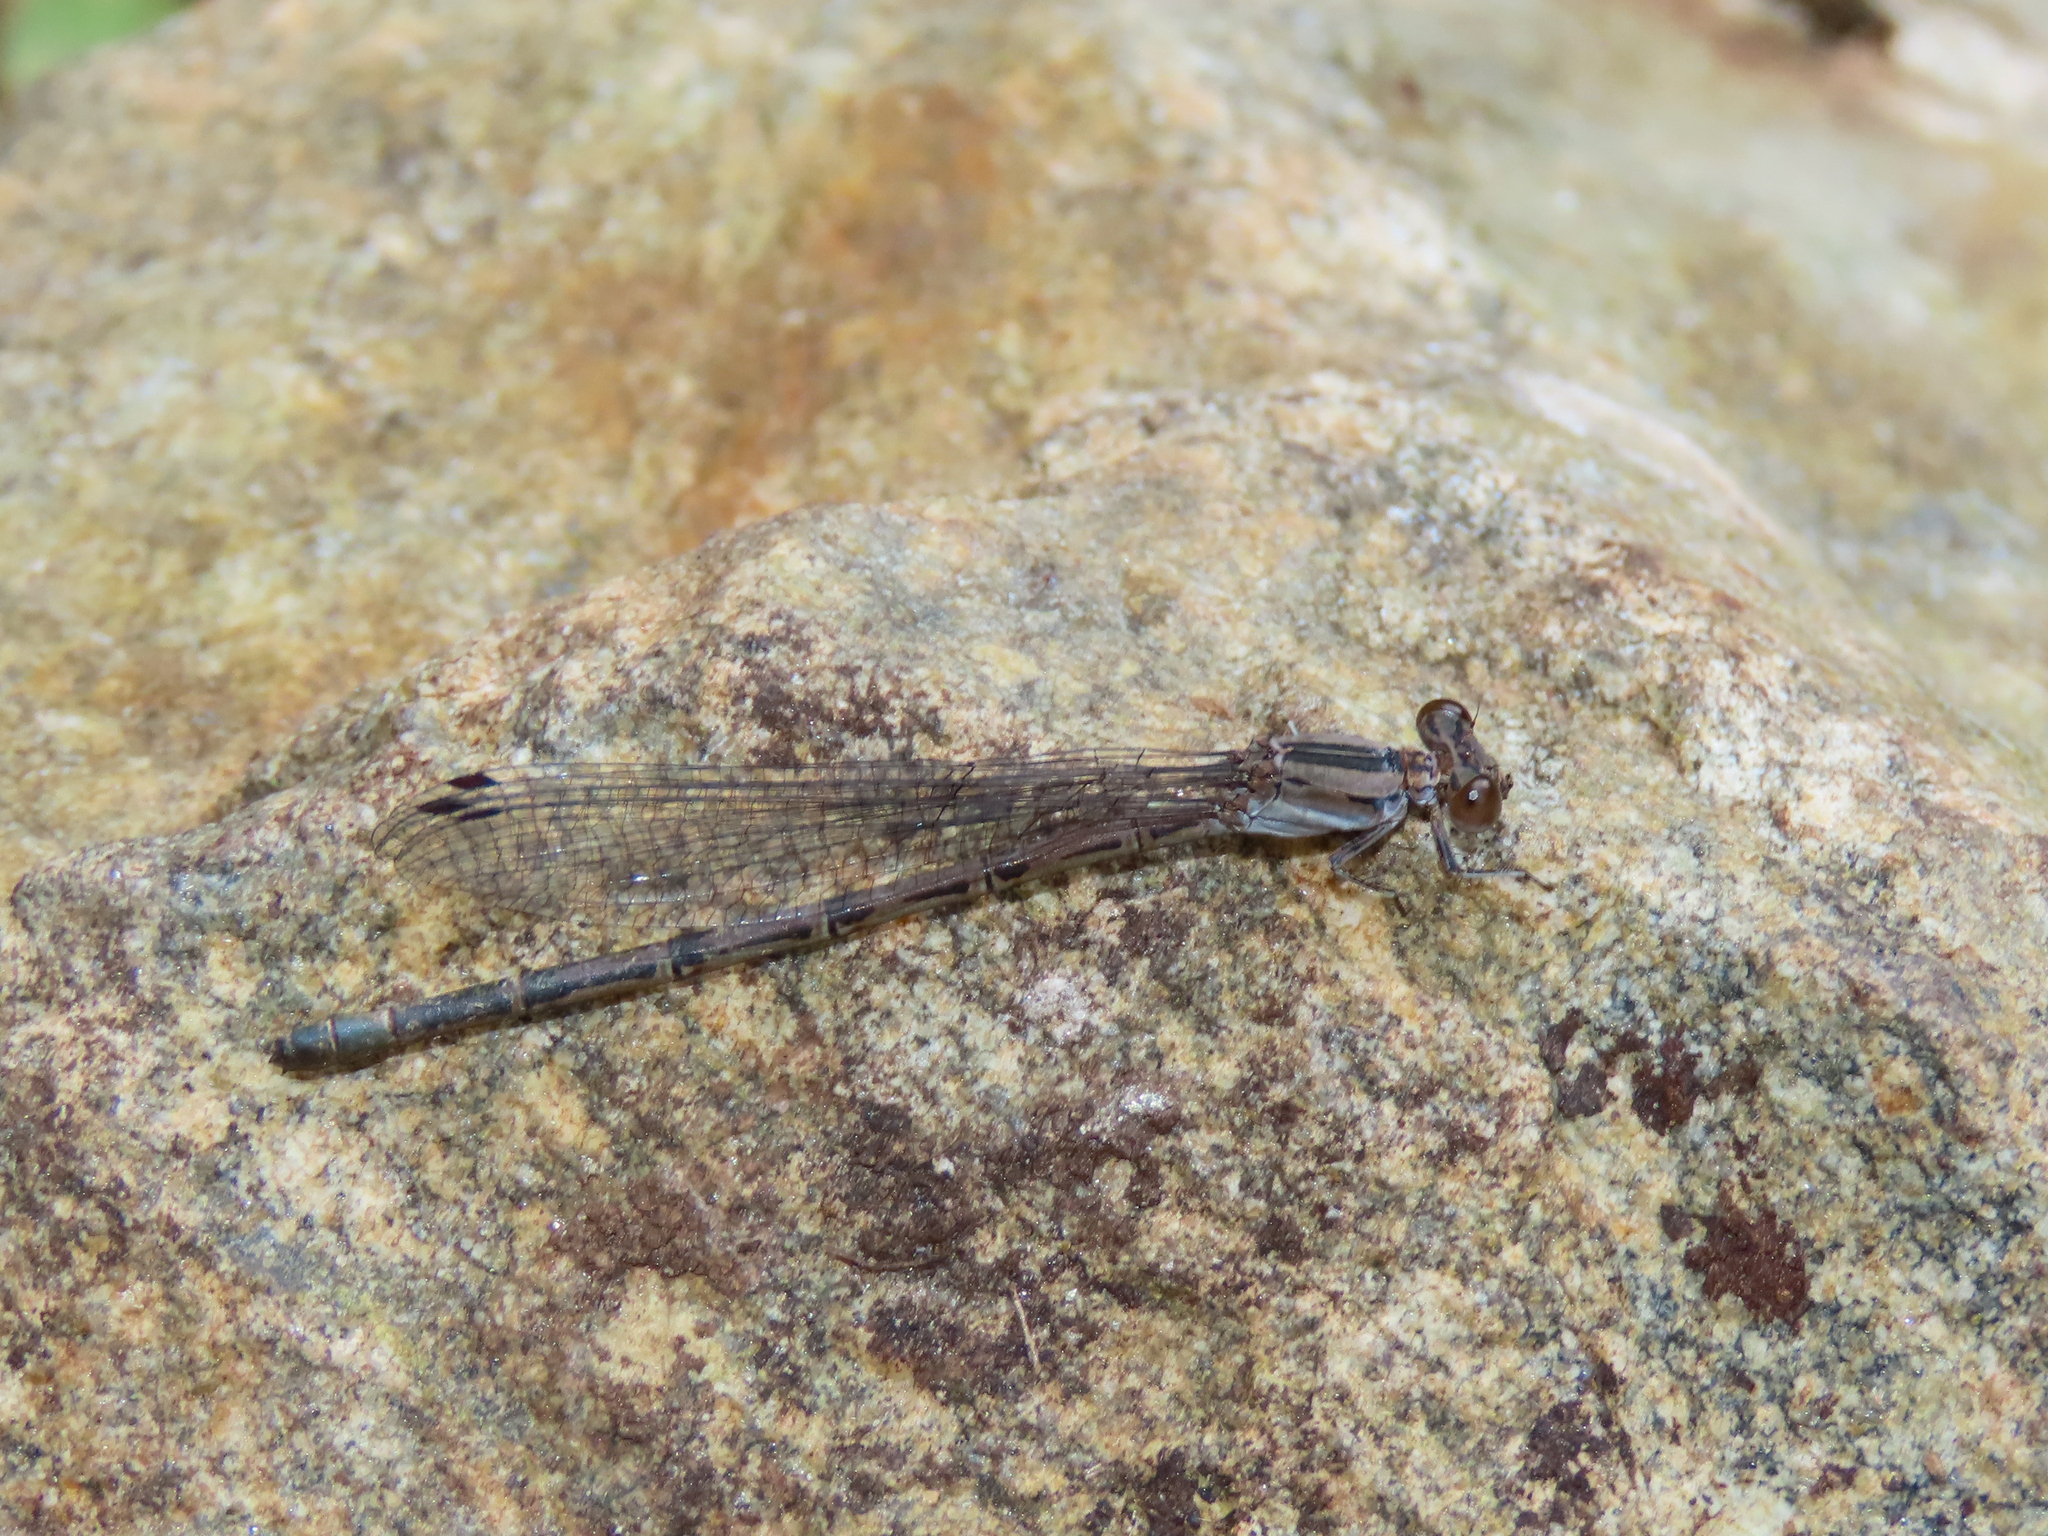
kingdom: Animalia
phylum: Arthropoda
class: Insecta
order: Odonata
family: Coenagrionidae
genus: Argia
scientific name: Argia funebris
